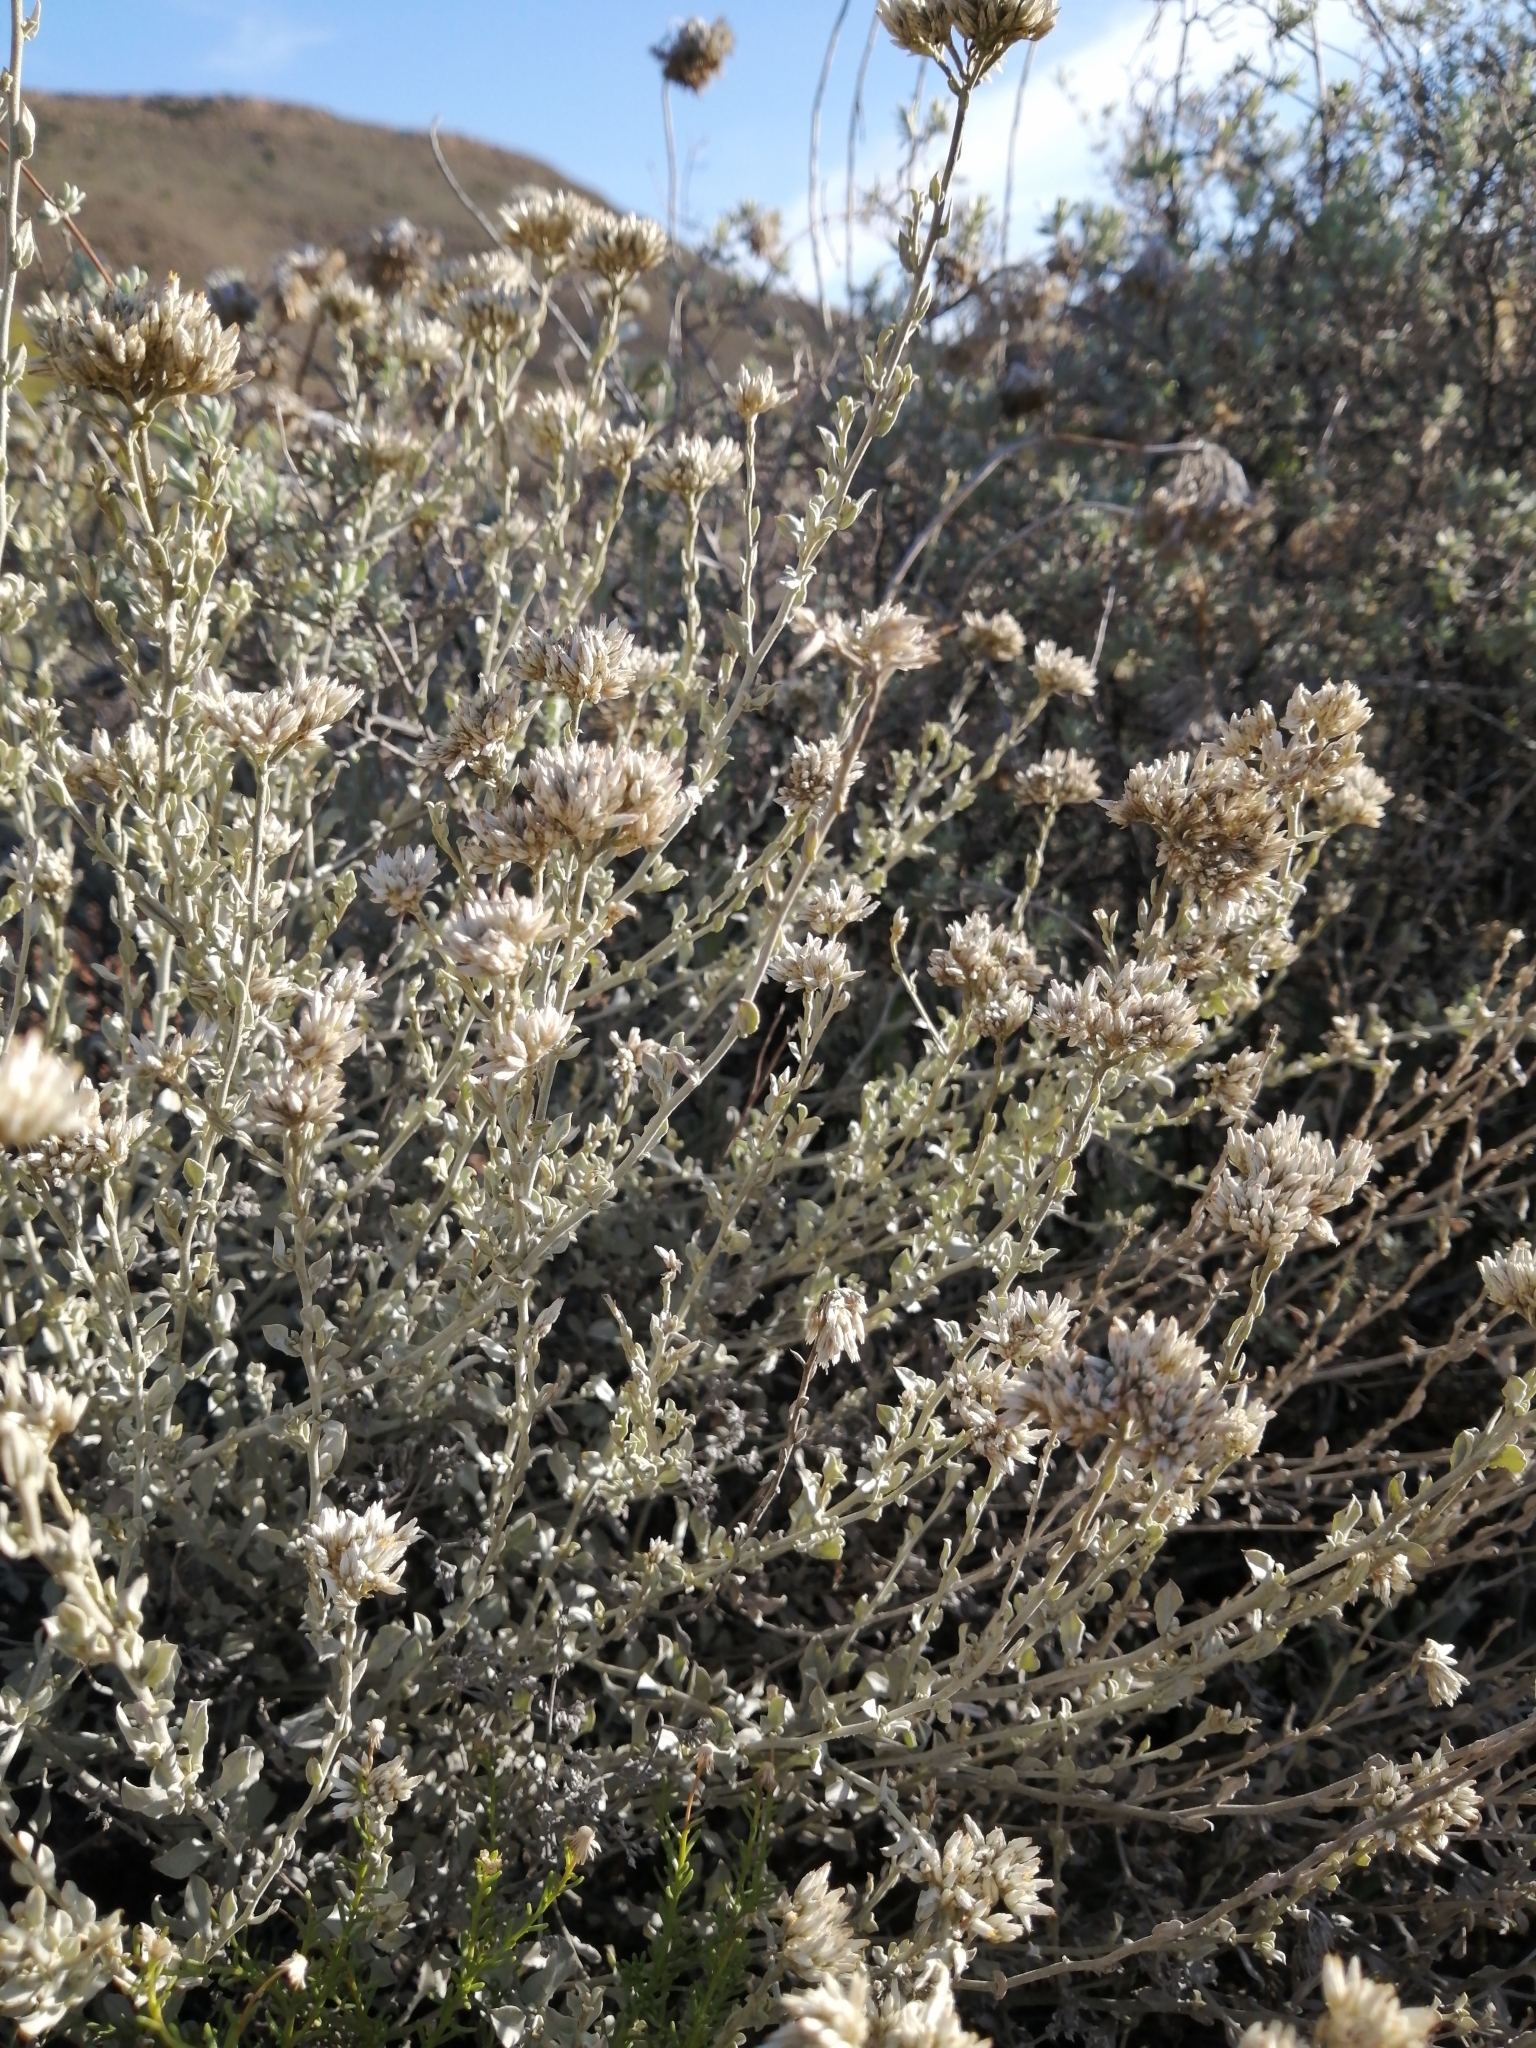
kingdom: Plantae
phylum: Tracheophyta
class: Magnoliopsida
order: Asterales
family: Asteraceae
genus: Helichrysum
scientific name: Helichrysum zeyheri
